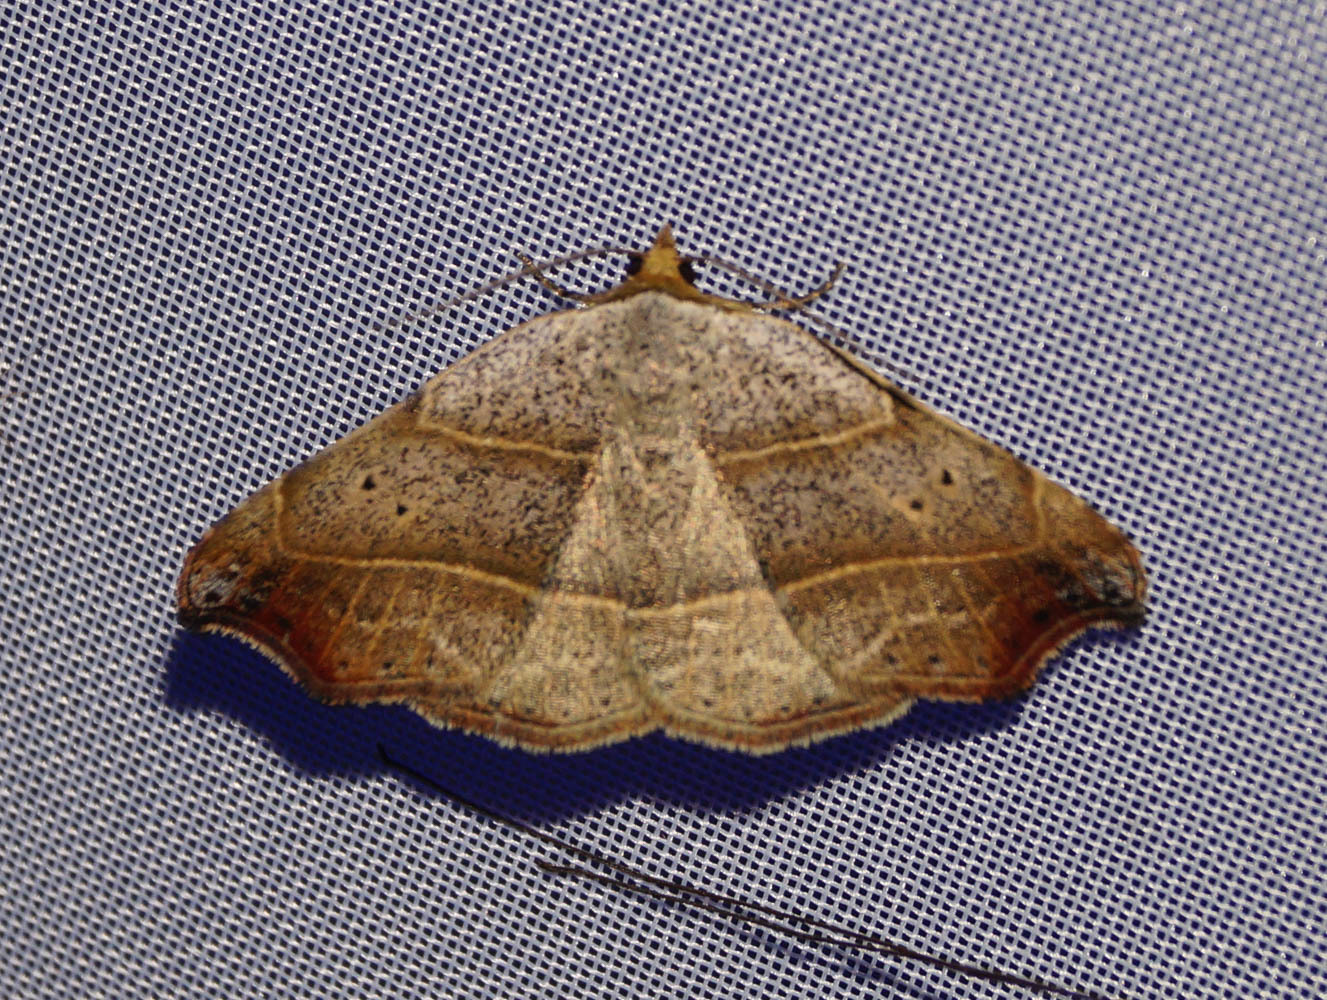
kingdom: Animalia
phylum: Arthropoda
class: Insecta
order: Lepidoptera
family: Erebidae
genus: Laspeyria
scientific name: Laspeyria flexula
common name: Beautiful hook-tip
